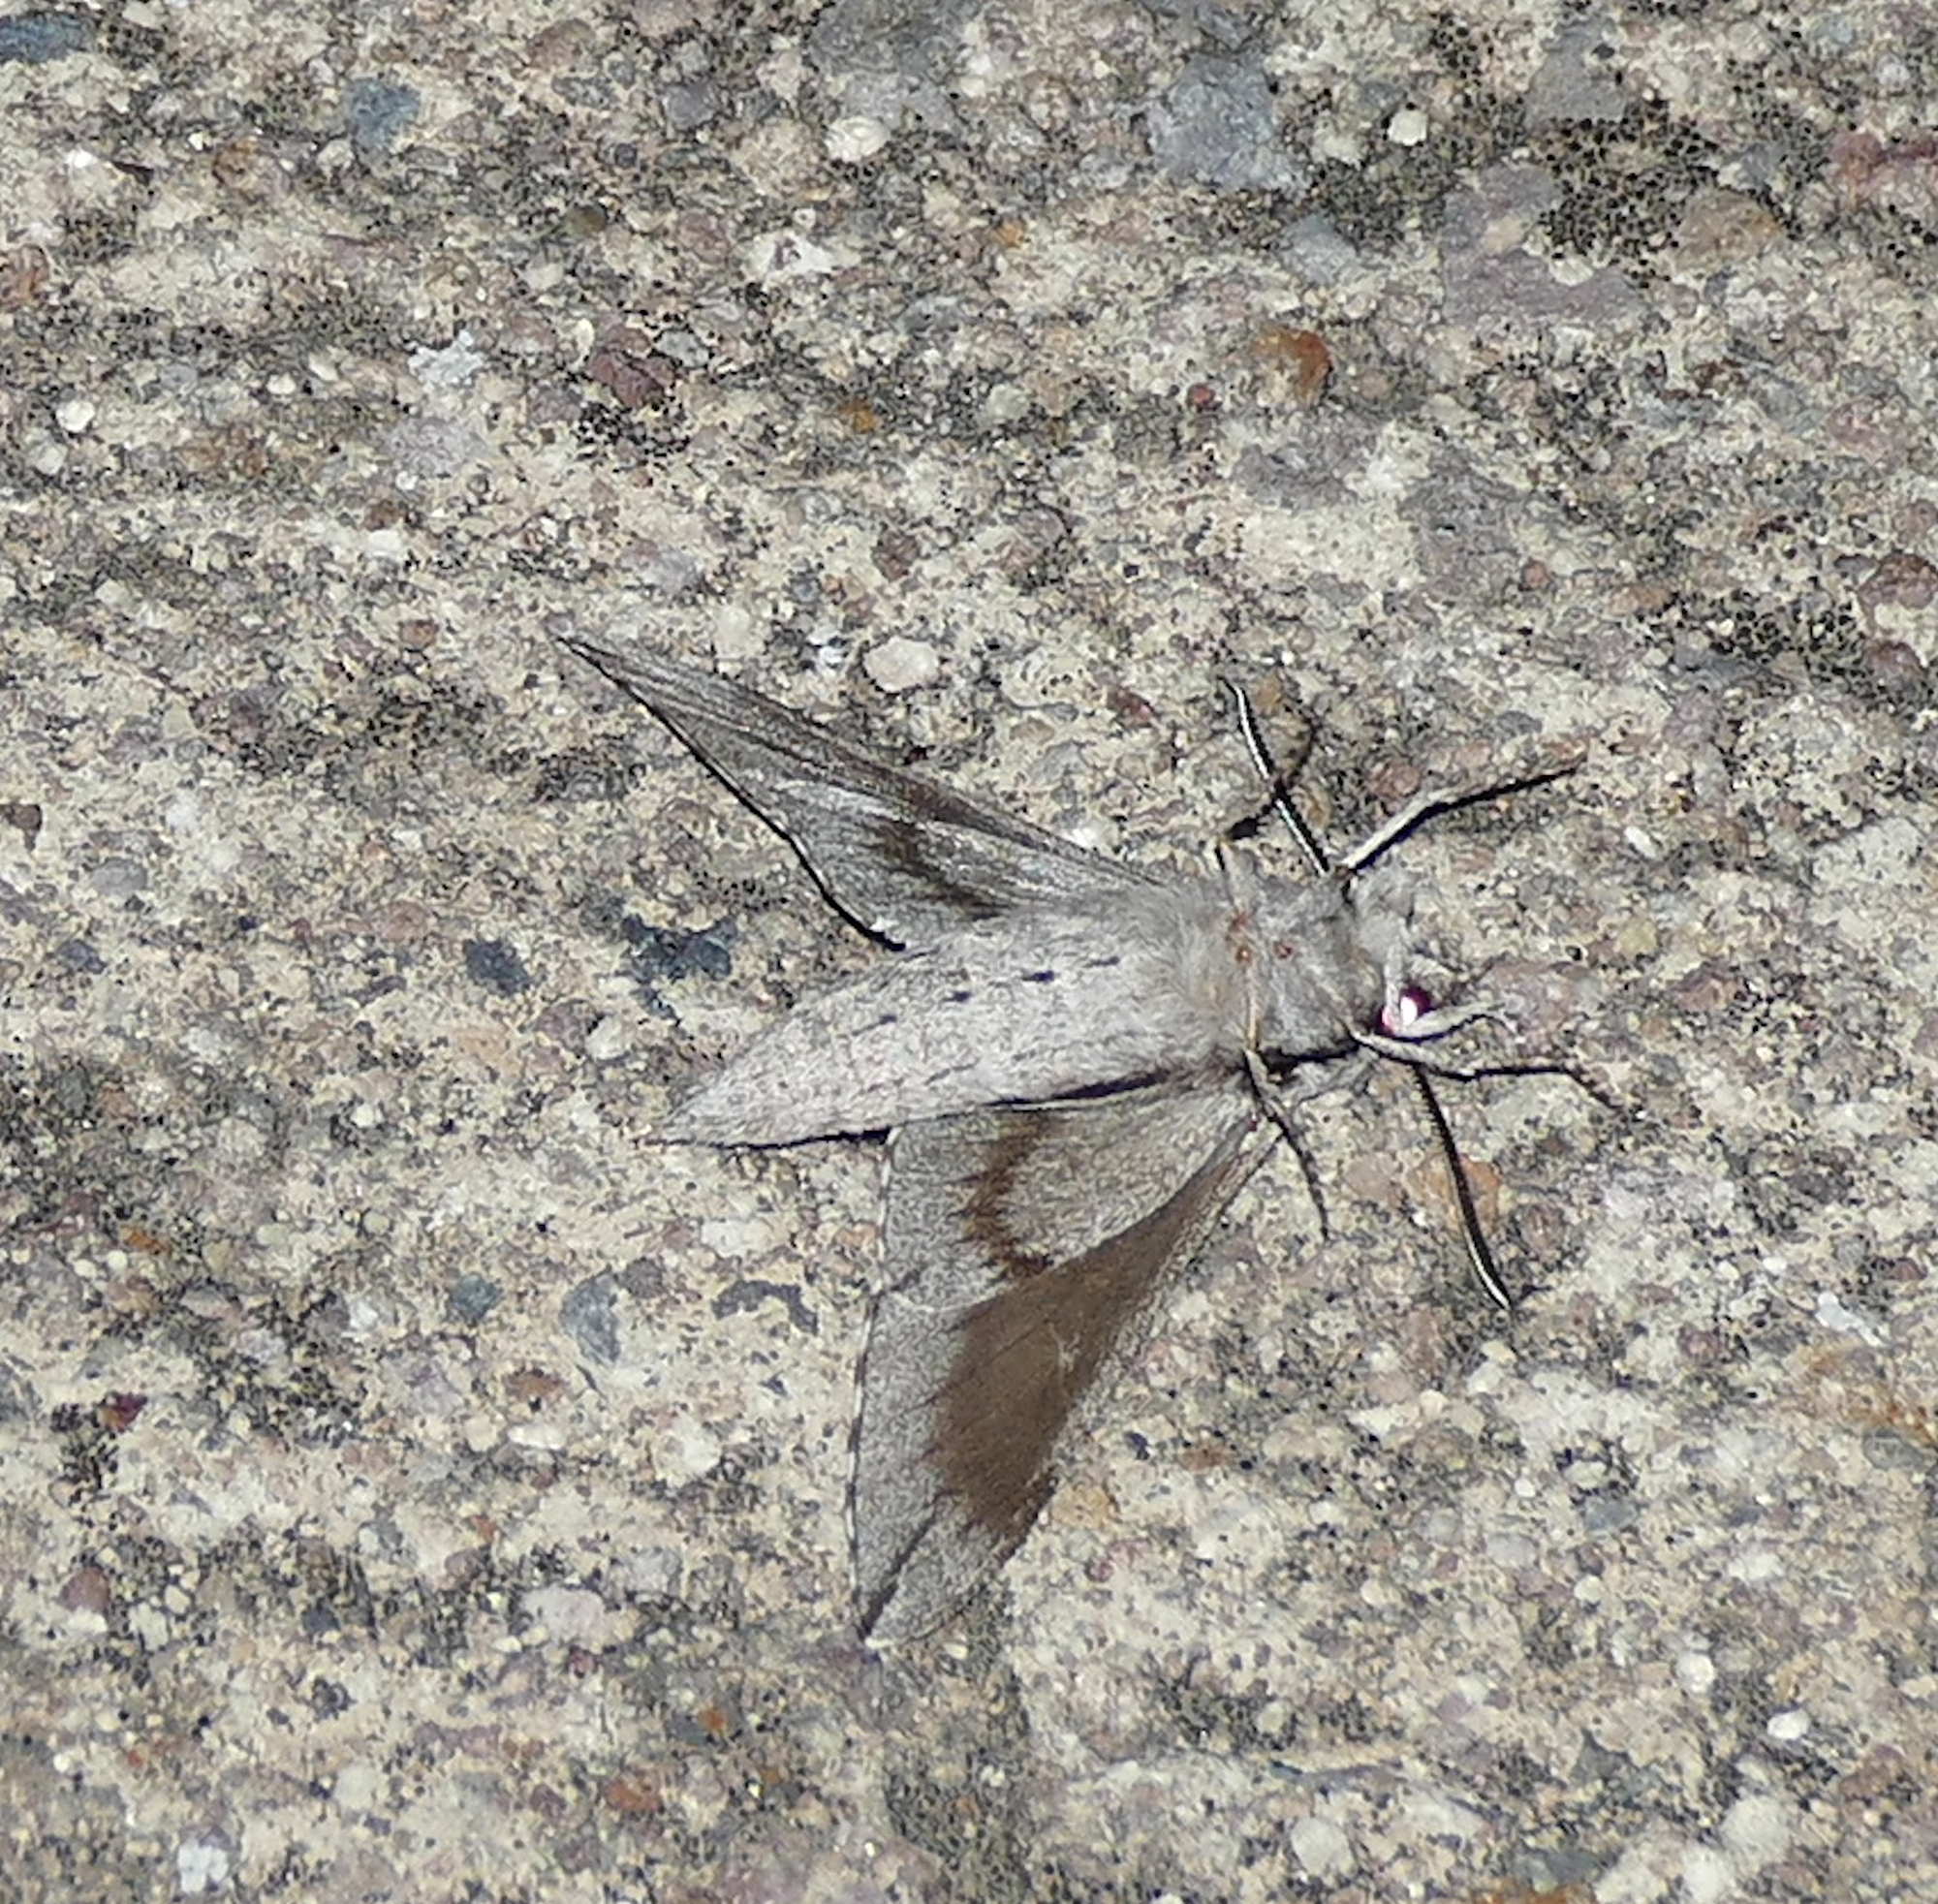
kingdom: Animalia
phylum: Arthropoda
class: Insecta
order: Lepidoptera
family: Sphingidae
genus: Sphinx
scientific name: Sphinx dollii
